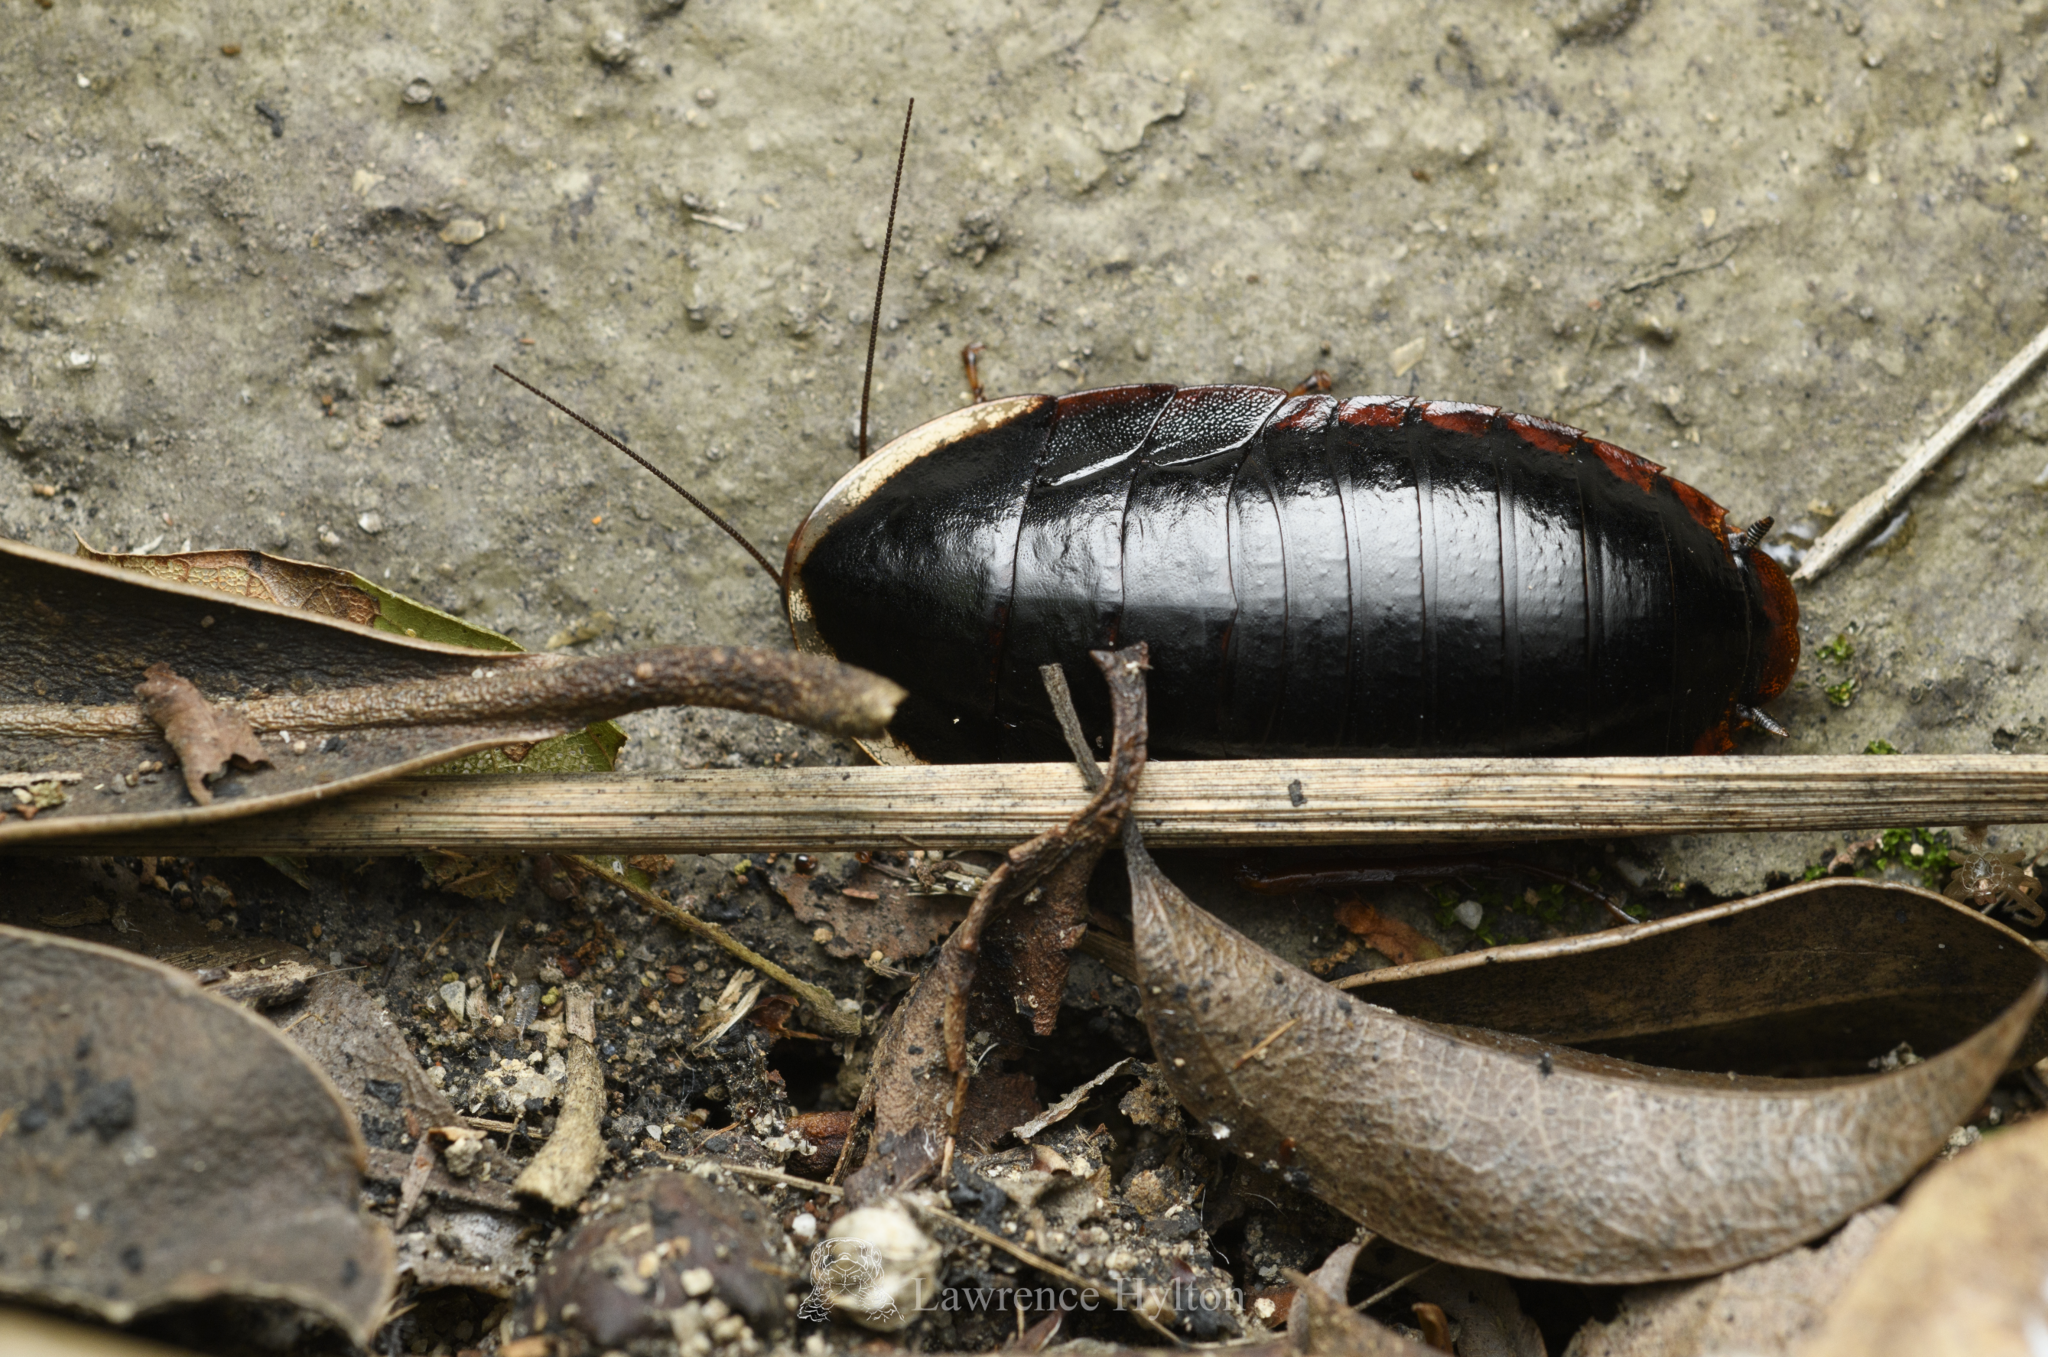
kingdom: Animalia
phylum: Arthropoda
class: Insecta
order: Blattodea
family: Blaberidae
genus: Opisthoplatia
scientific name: Opisthoplatia orientalis
